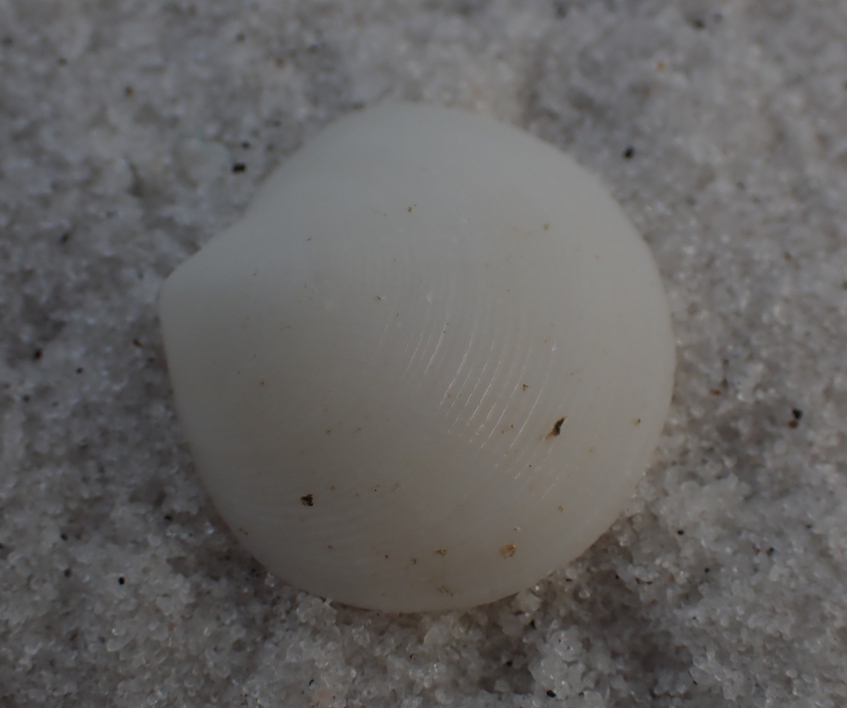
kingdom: Animalia
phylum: Mollusca
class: Bivalvia
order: Lucinida
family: Lucinidae
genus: Callucina
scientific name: Callucina keenae
